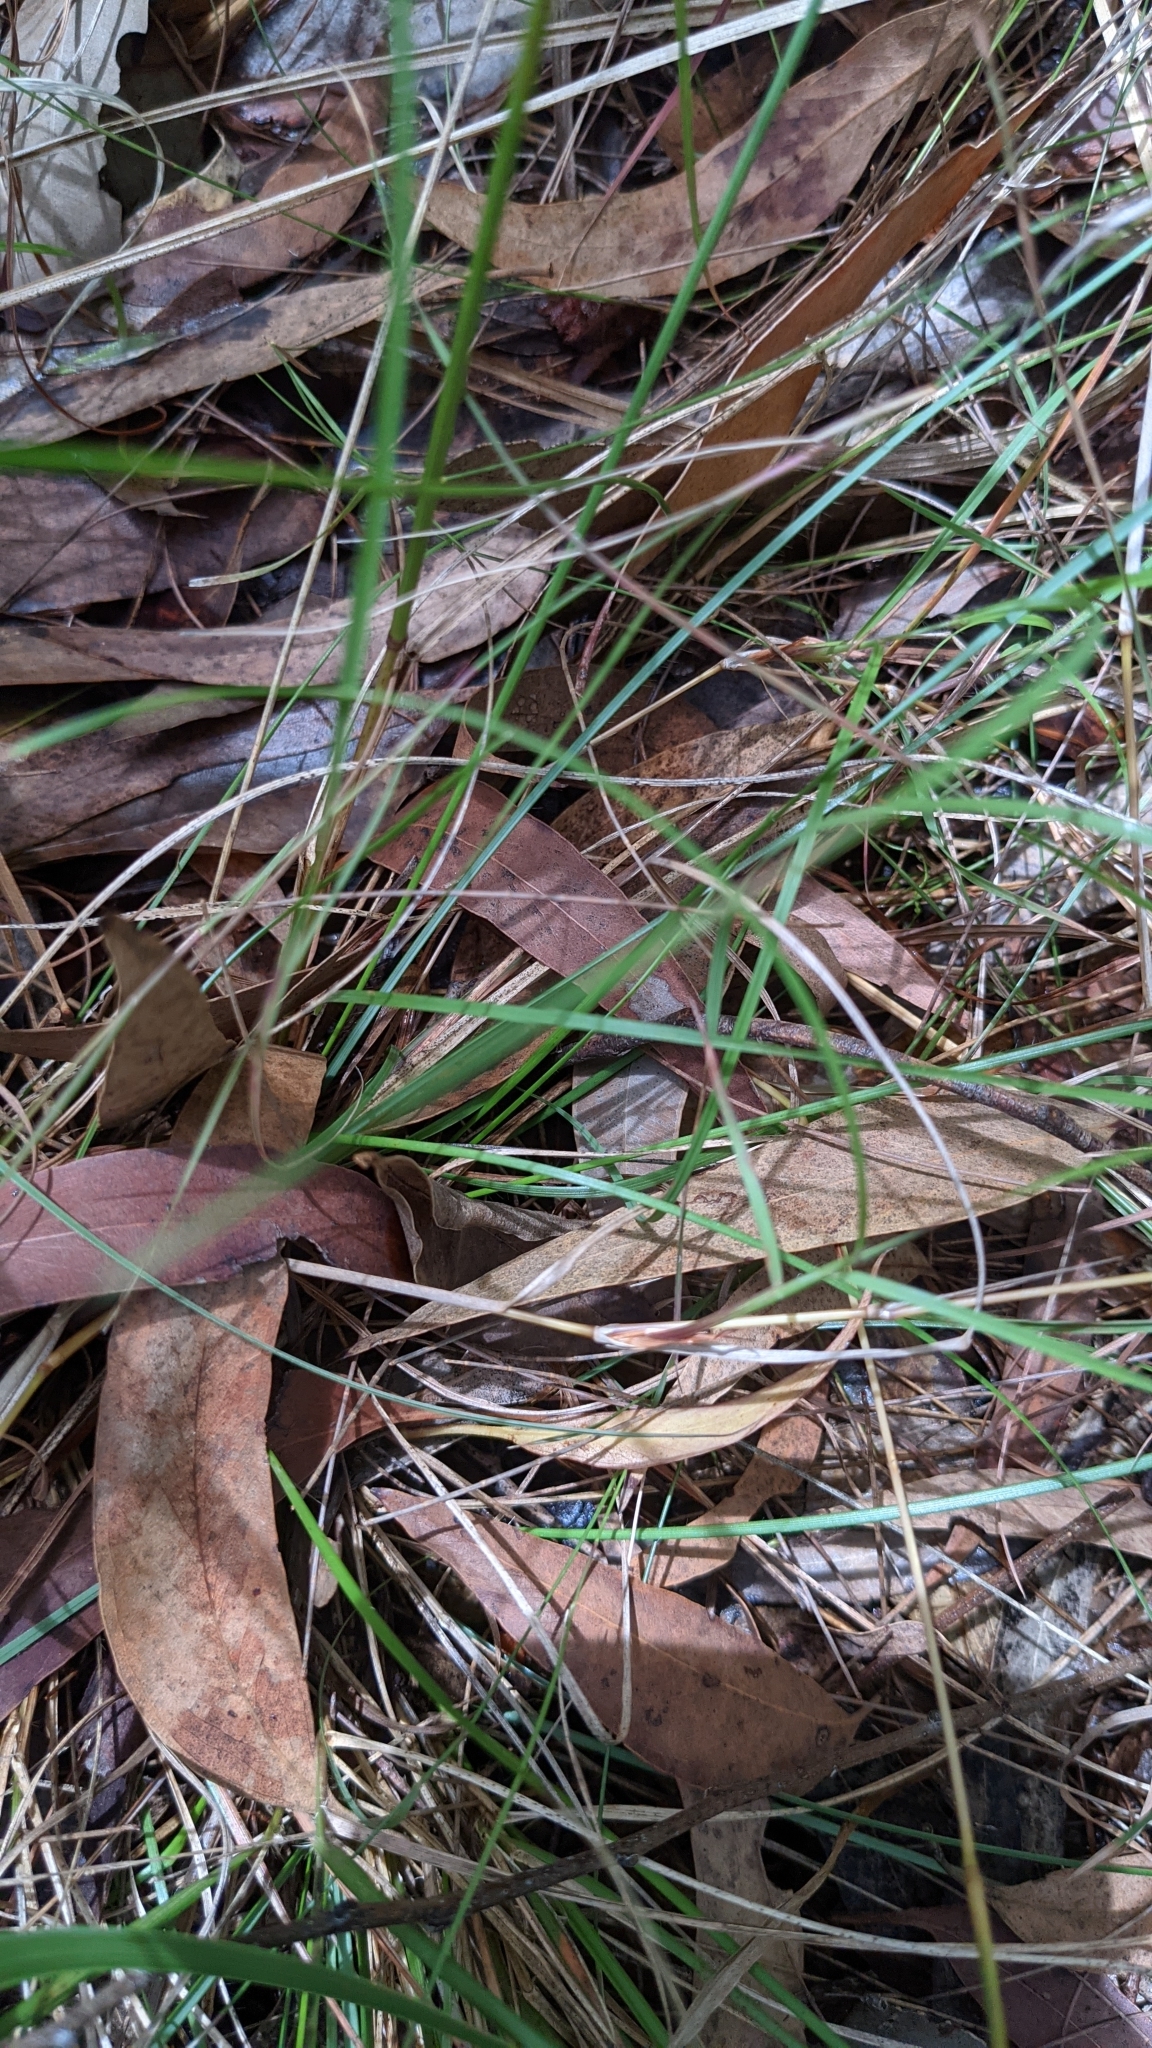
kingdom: Plantae
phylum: Tracheophyta
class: Liliopsida
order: Poales
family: Poaceae
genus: Rytidosperma
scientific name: Rytidosperma tenuius
